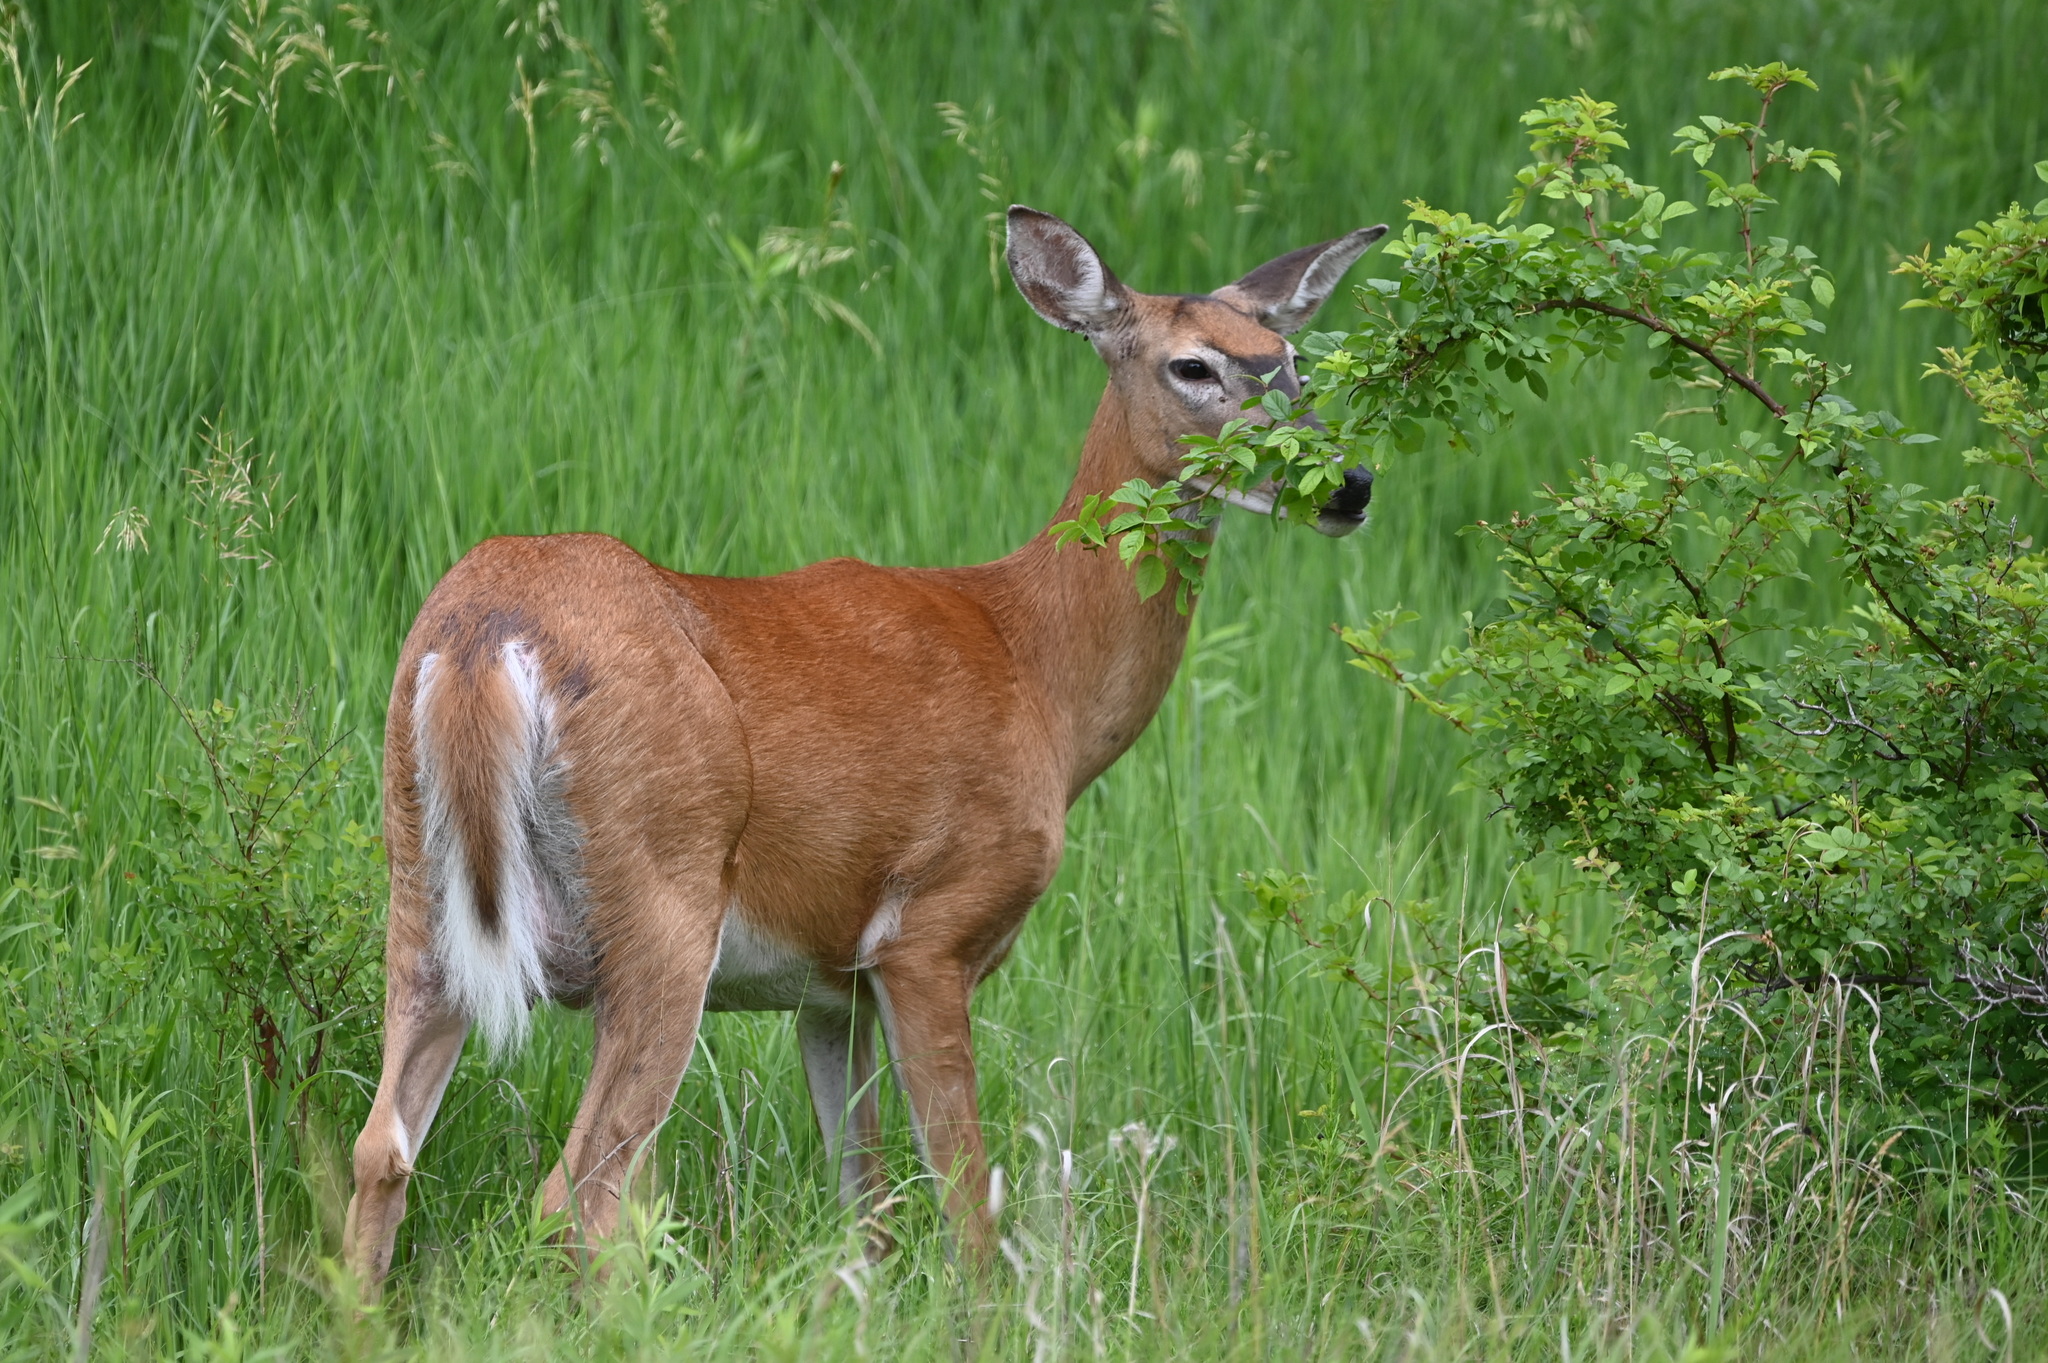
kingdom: Animalia
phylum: Chordata
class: Mammalia
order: Artiodactyla
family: Cervidae
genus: Odocoileus
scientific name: Odocoileus virginianus
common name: White-tailed deer
